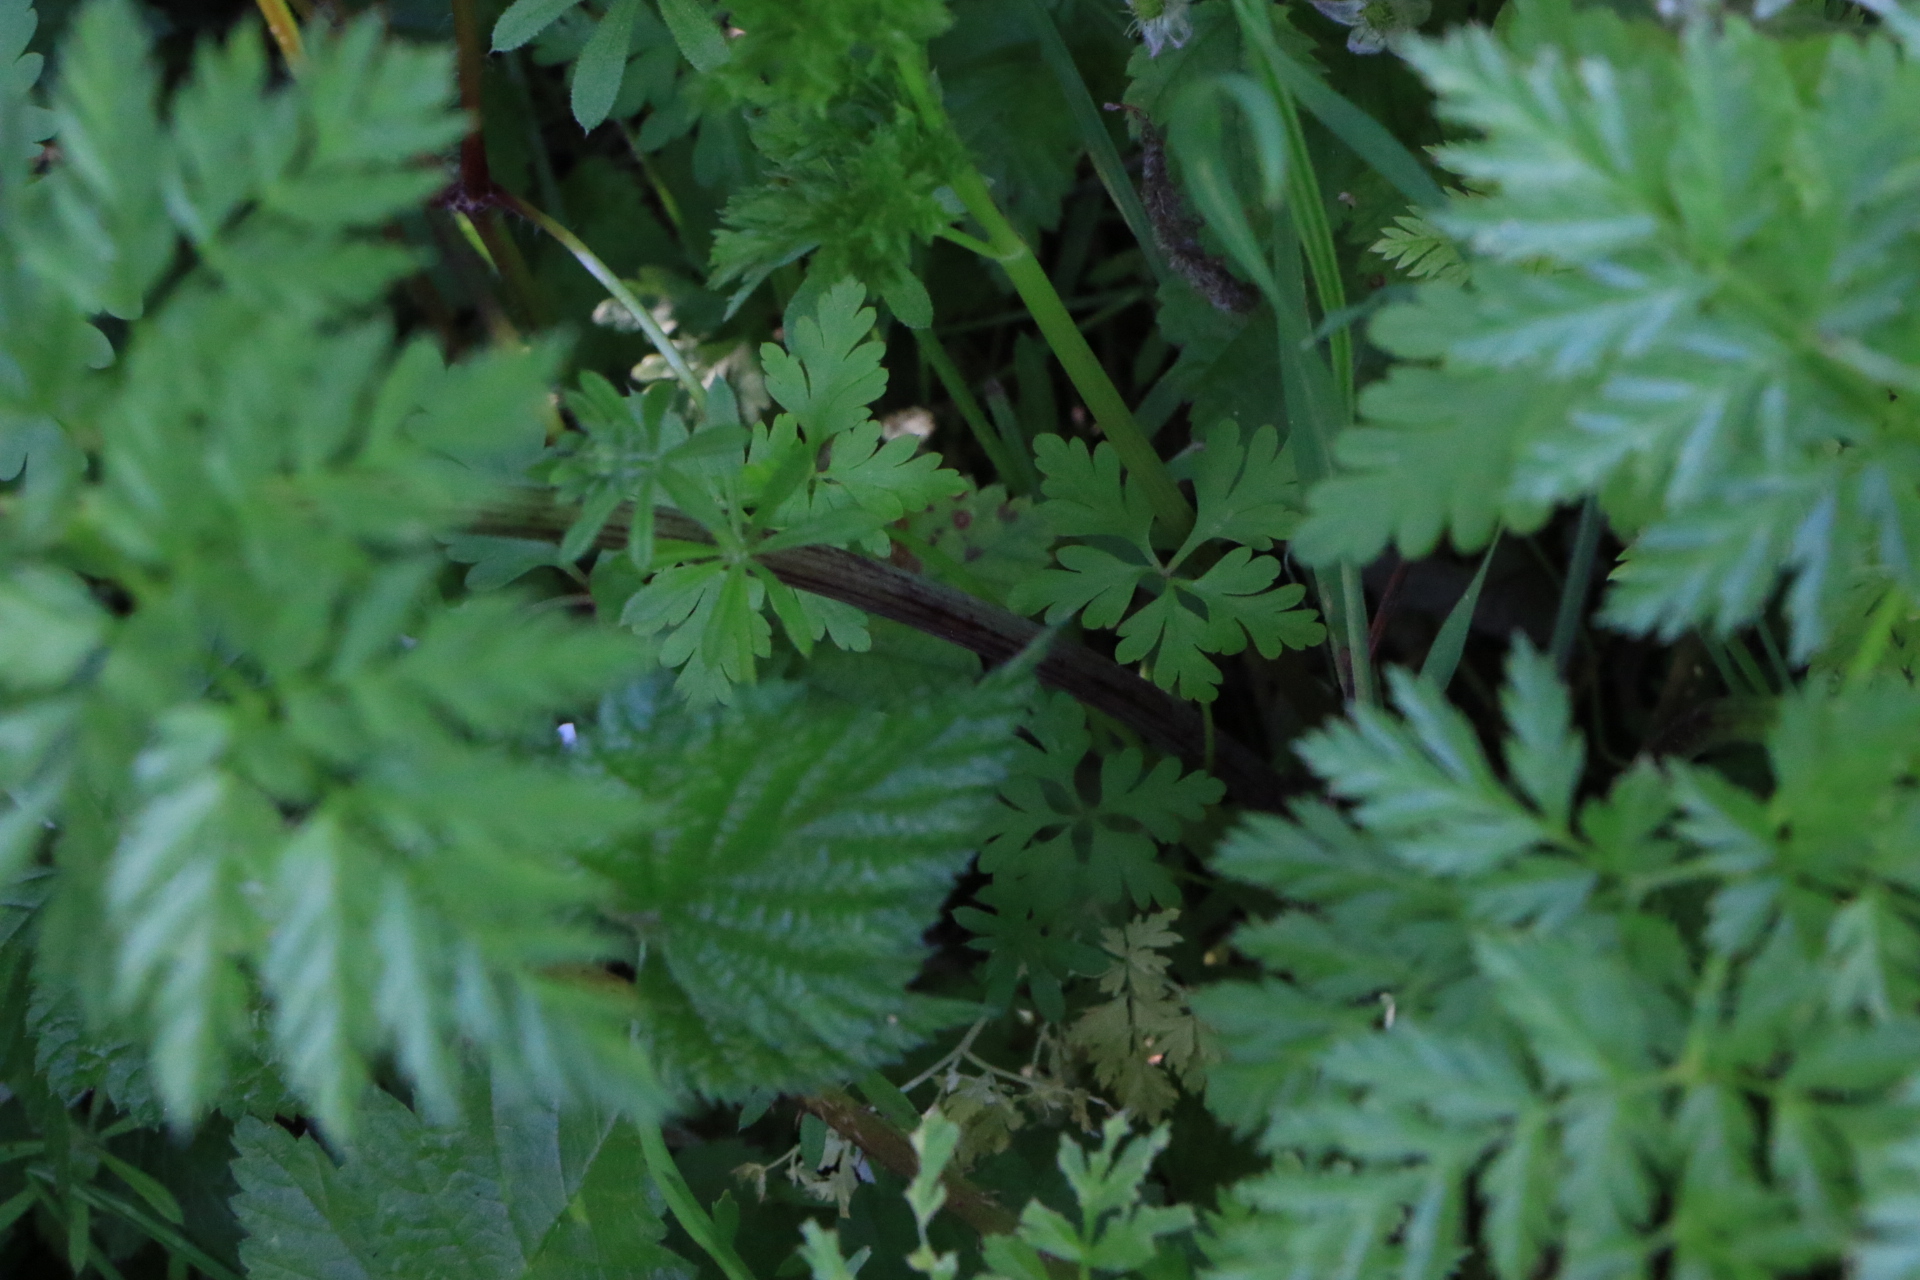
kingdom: Plantae
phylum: Tracheophyta
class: Magnoliopsida
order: Apiales
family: Apiaceae
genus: Conium
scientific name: Conium maculatum
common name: Hemlock
